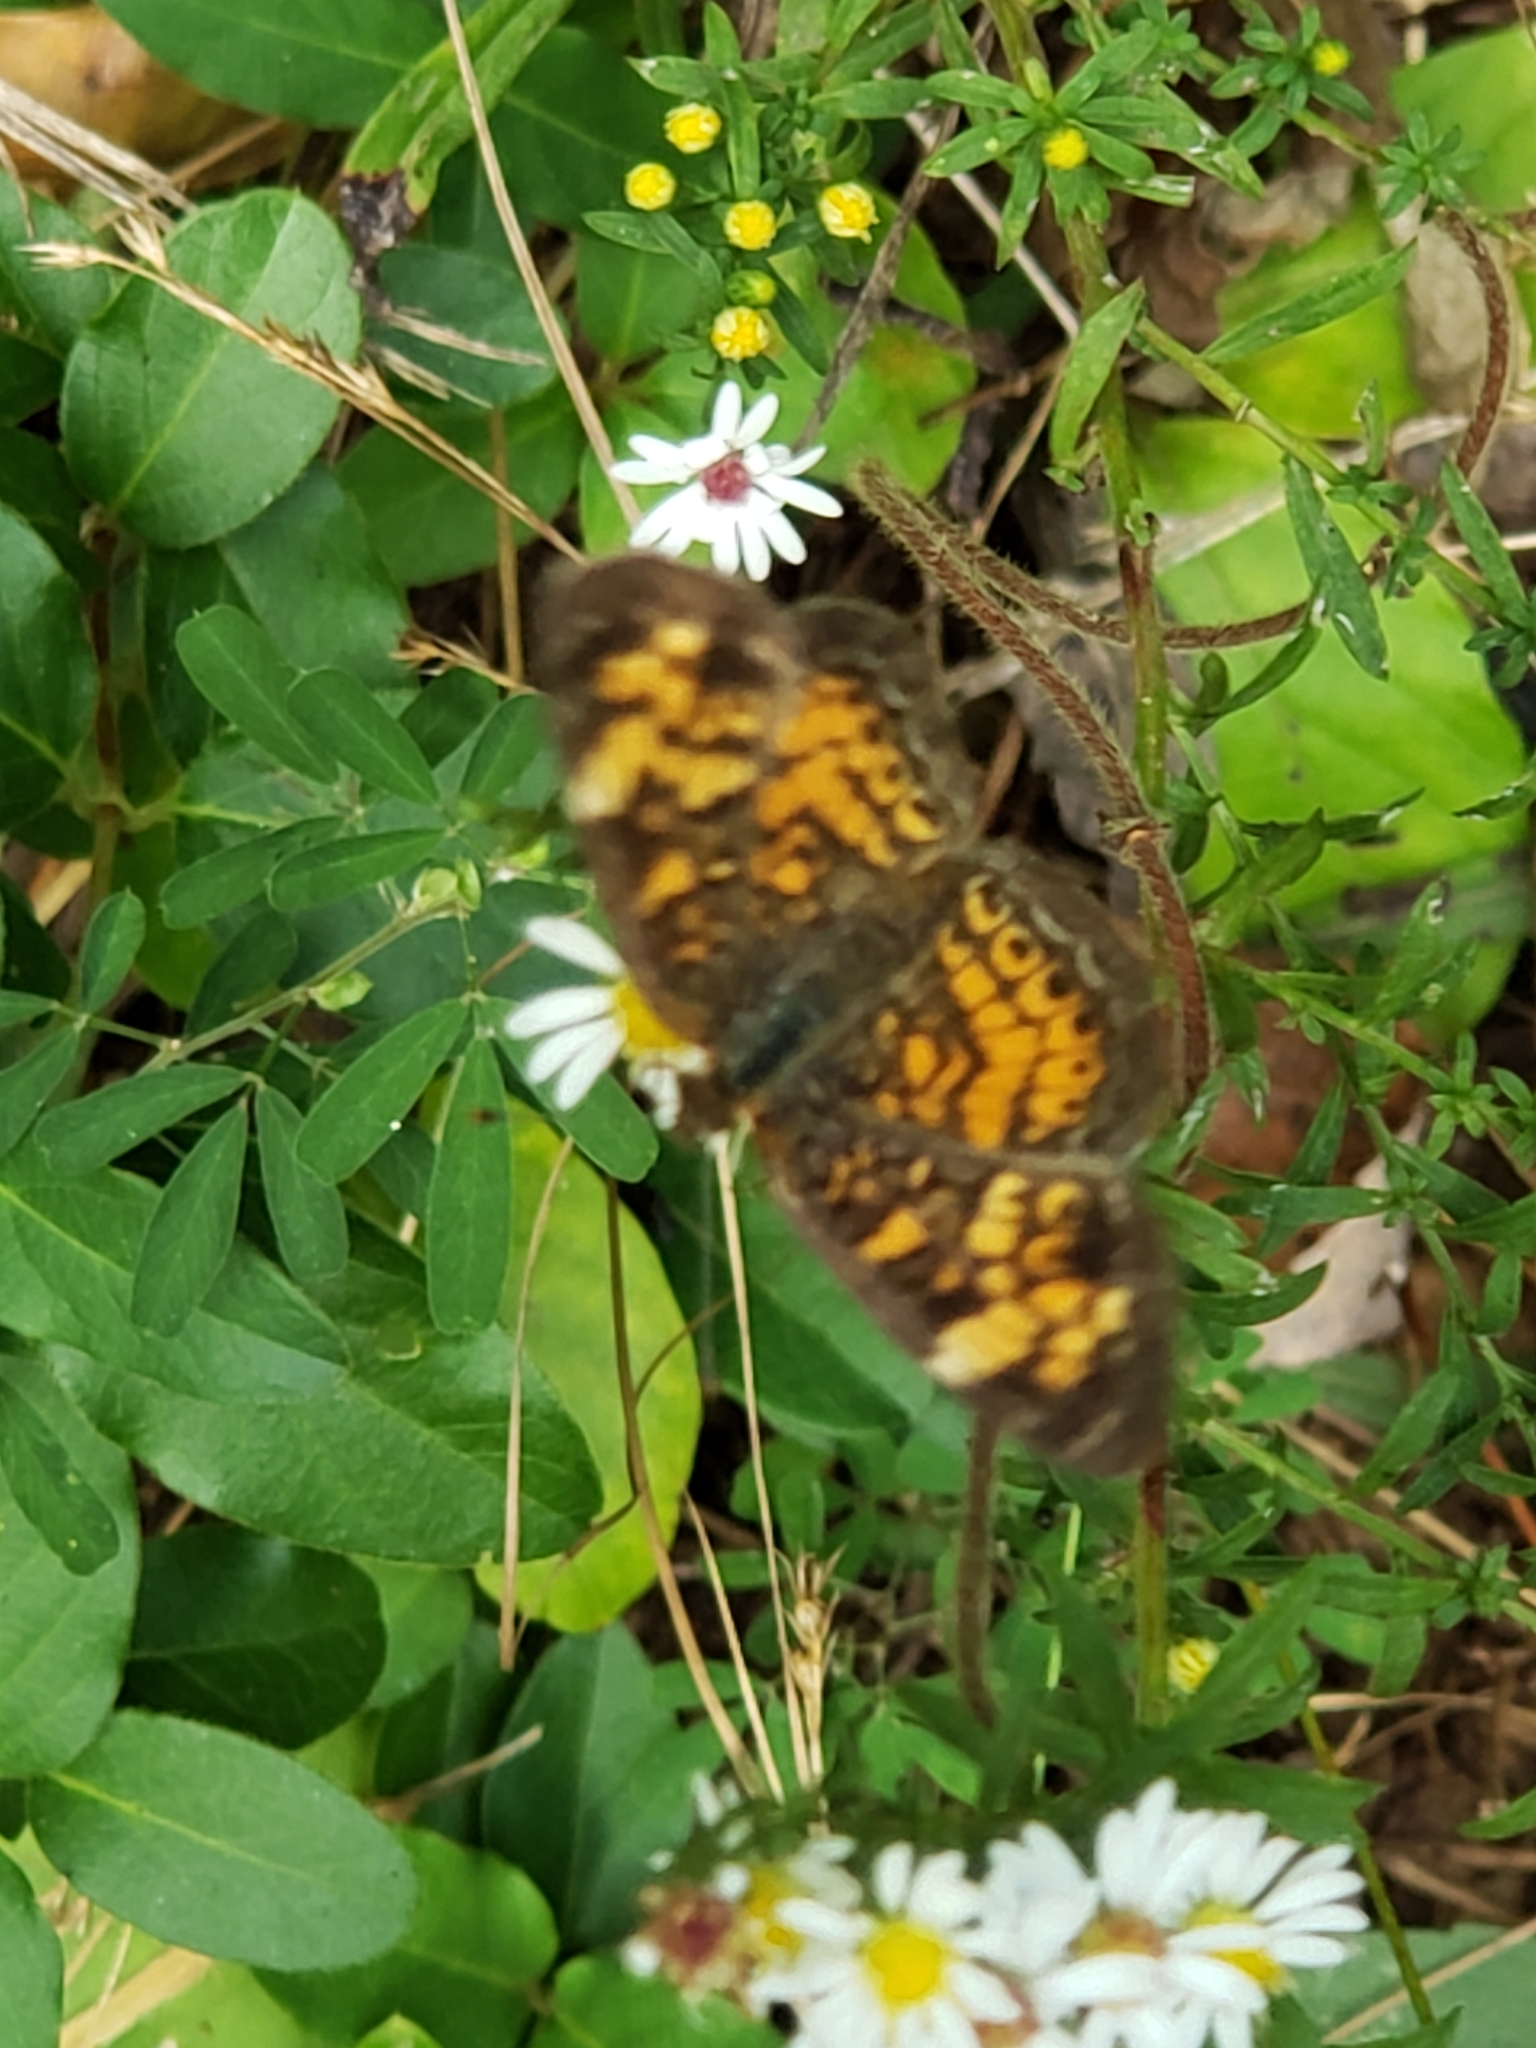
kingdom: Animalia
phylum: Arthropoda
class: Insecta
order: Lepidoptera
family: Nymphalidae
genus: Phyciodes
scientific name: Phyciodes tharos
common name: Pearl crescent
